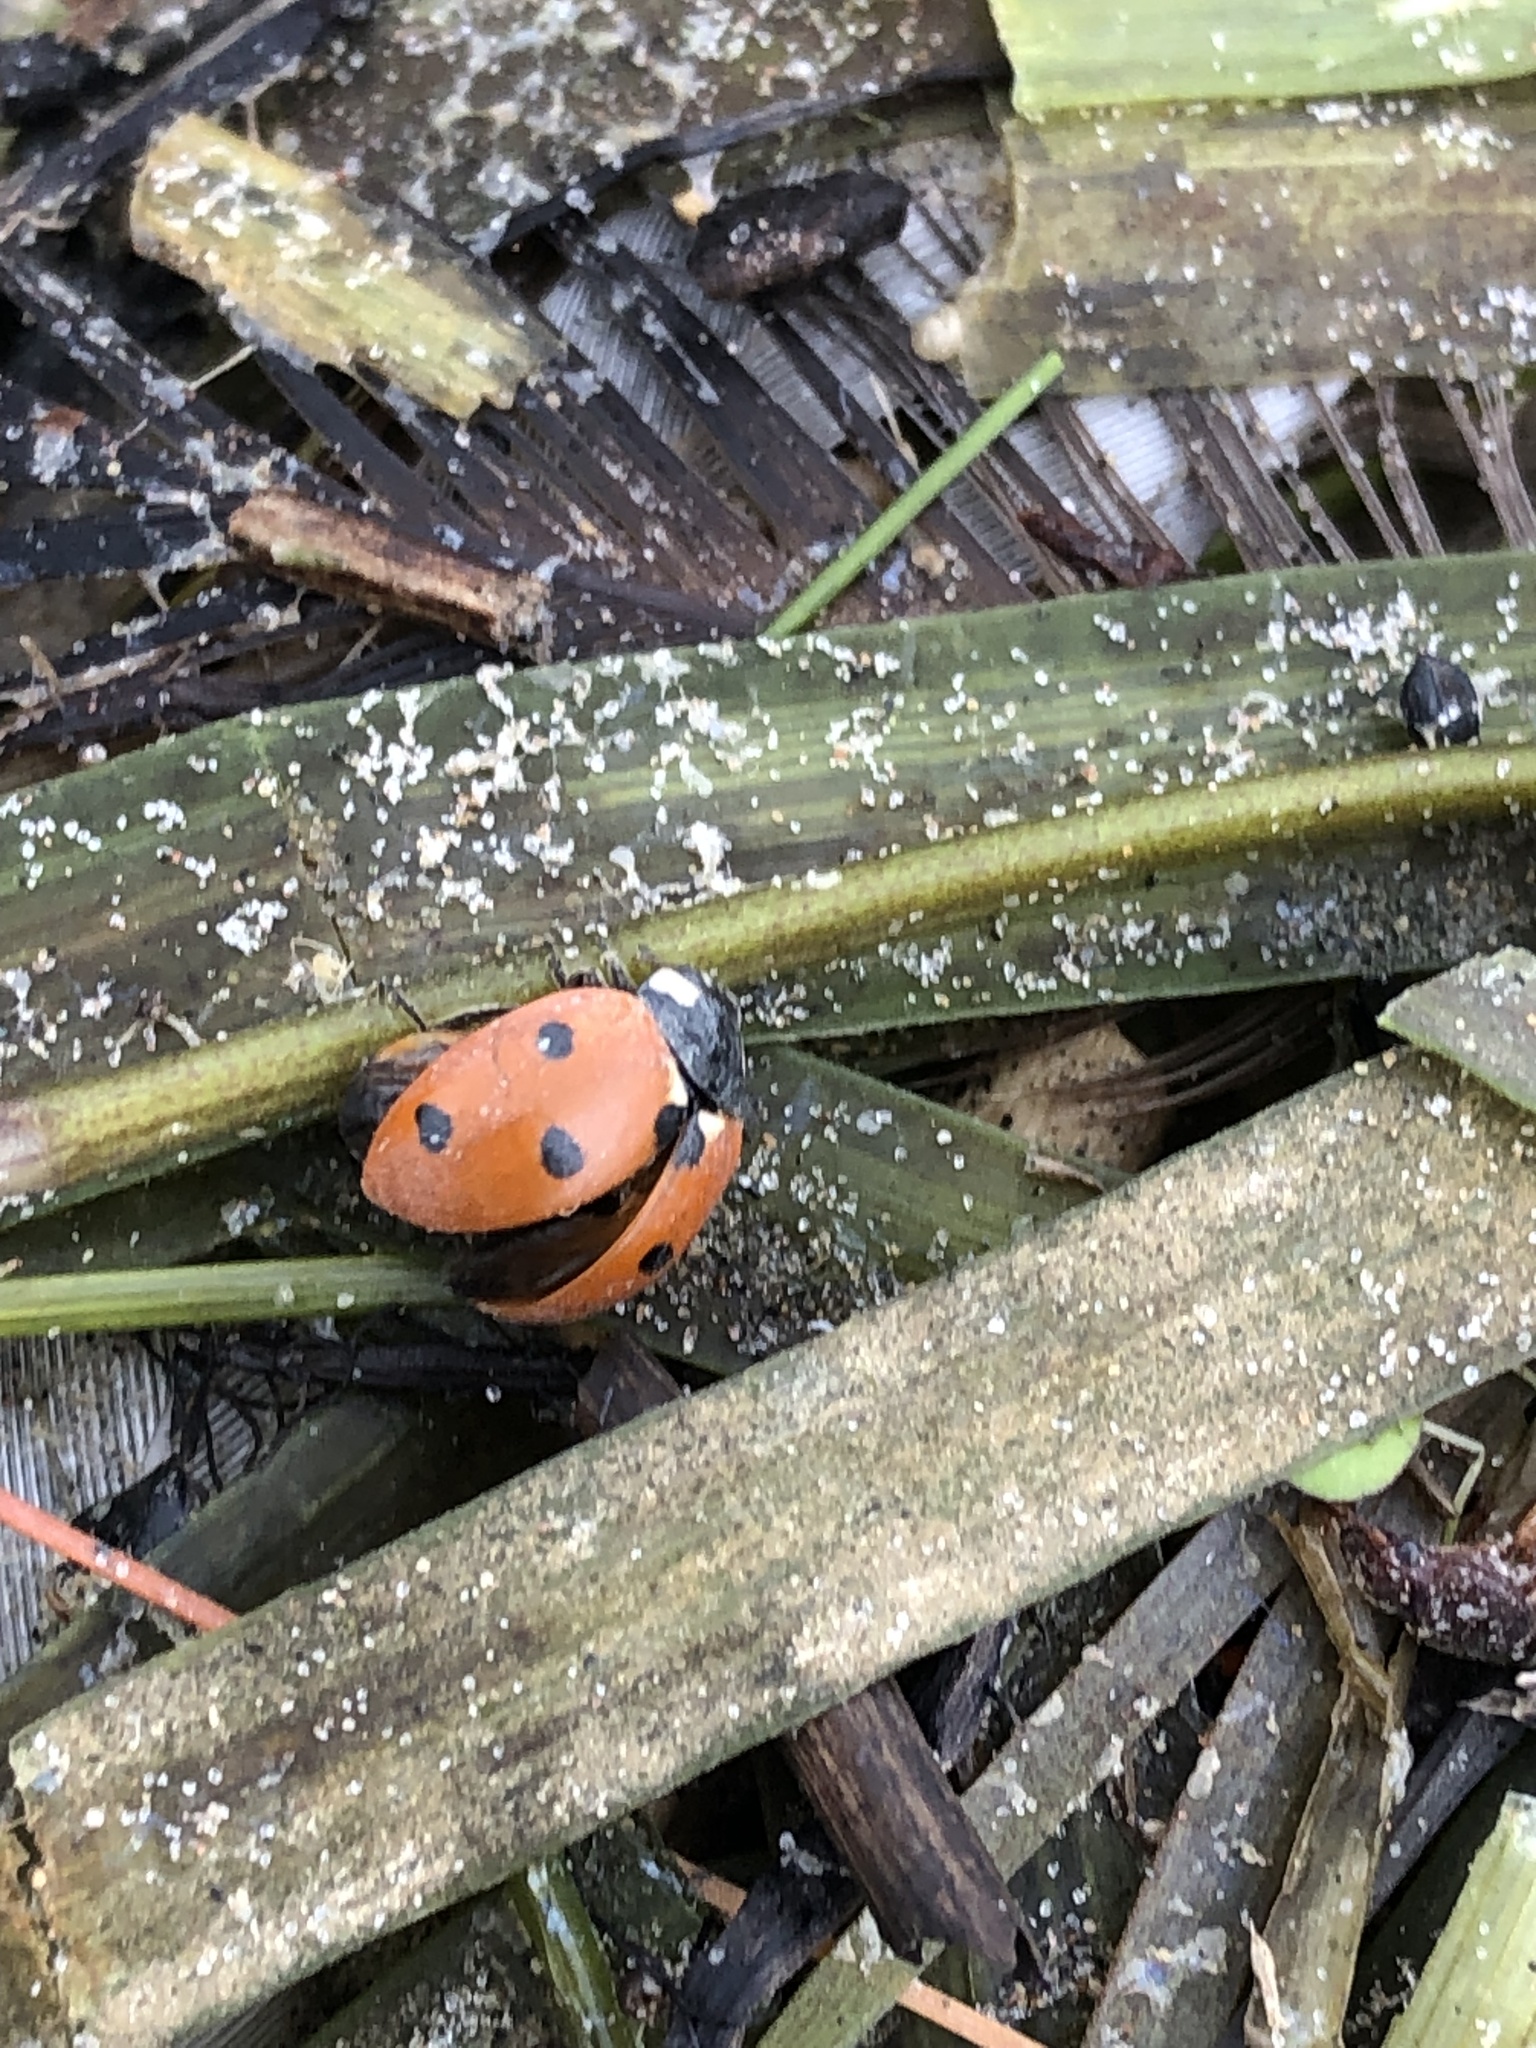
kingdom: Animalia
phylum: Arthropoda
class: Insecta
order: Coleoptera
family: Coccinellidae
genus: Coccinella
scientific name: Coccinella septempunctata
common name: Sevenspotted lady beetle
